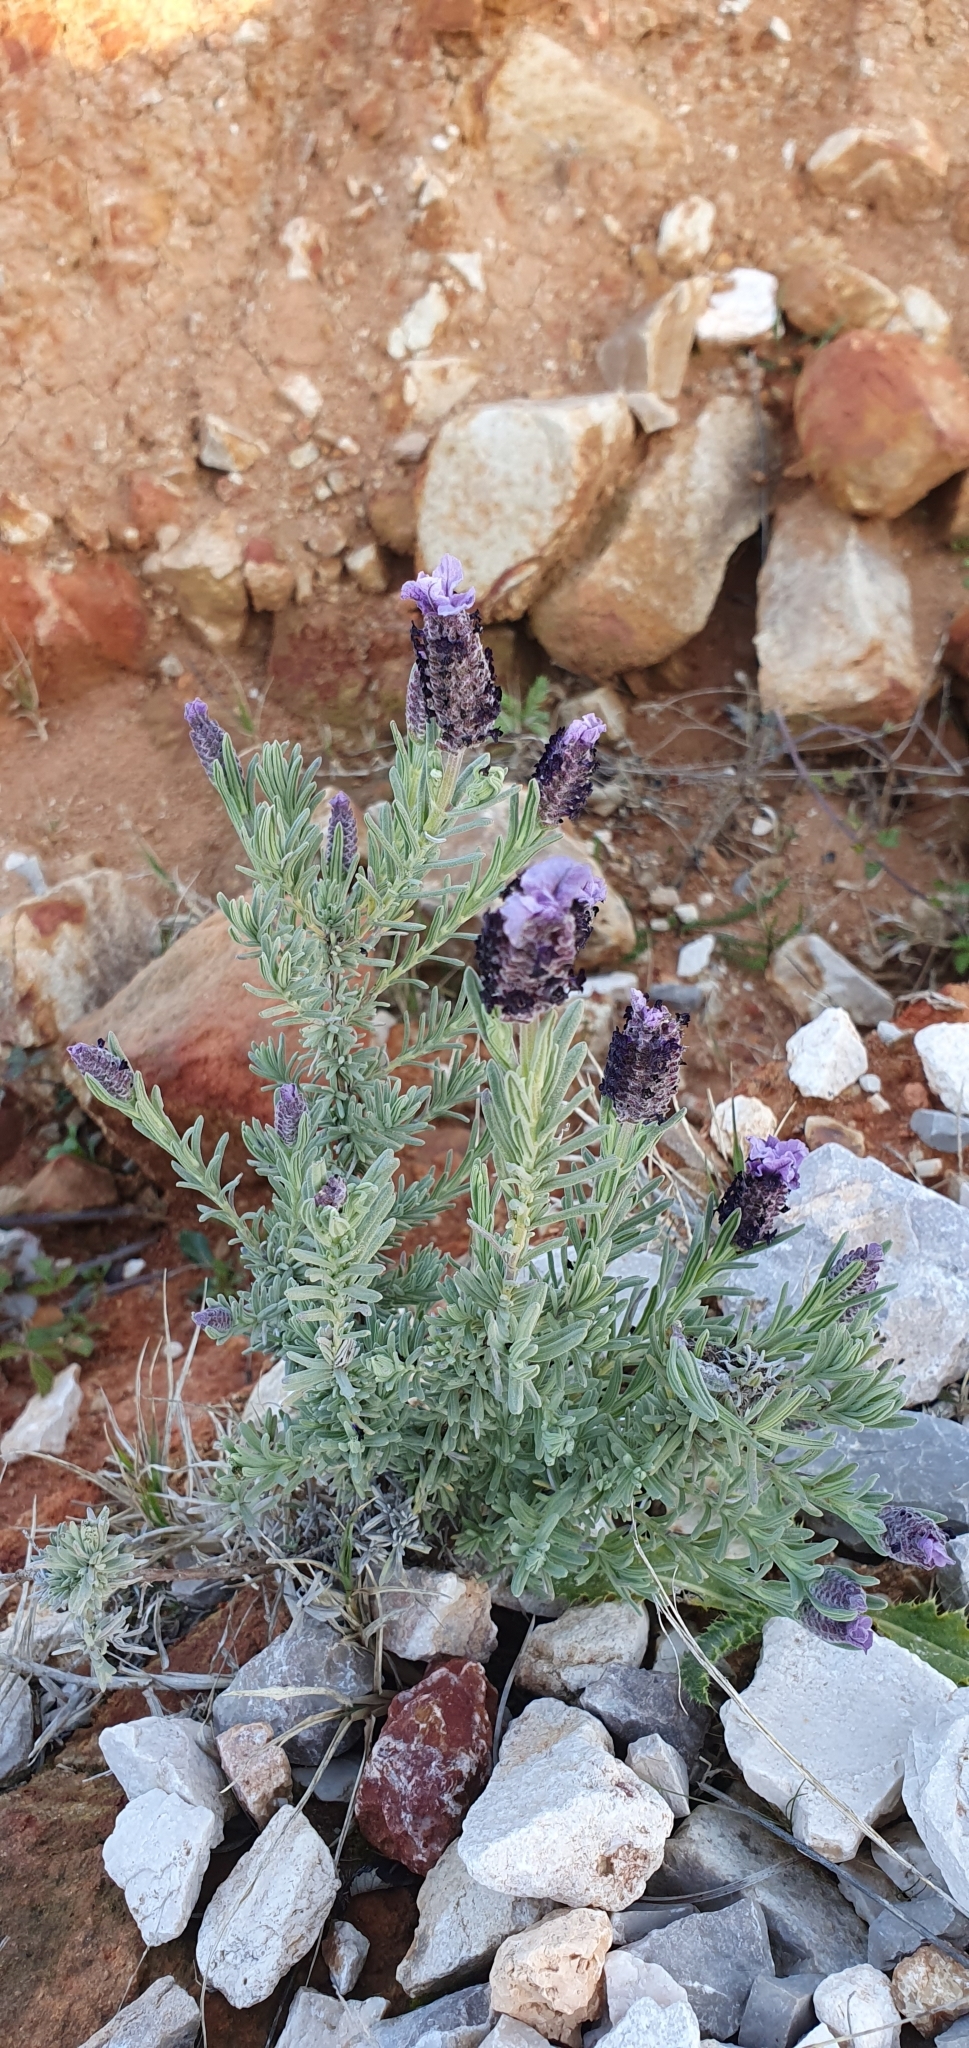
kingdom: Plantae
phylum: Tracheophyta
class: Magnoliopsida
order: Lamiales
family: Lamiaceae
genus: Lavandula
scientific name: Lavandula stoechas
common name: French lavender
